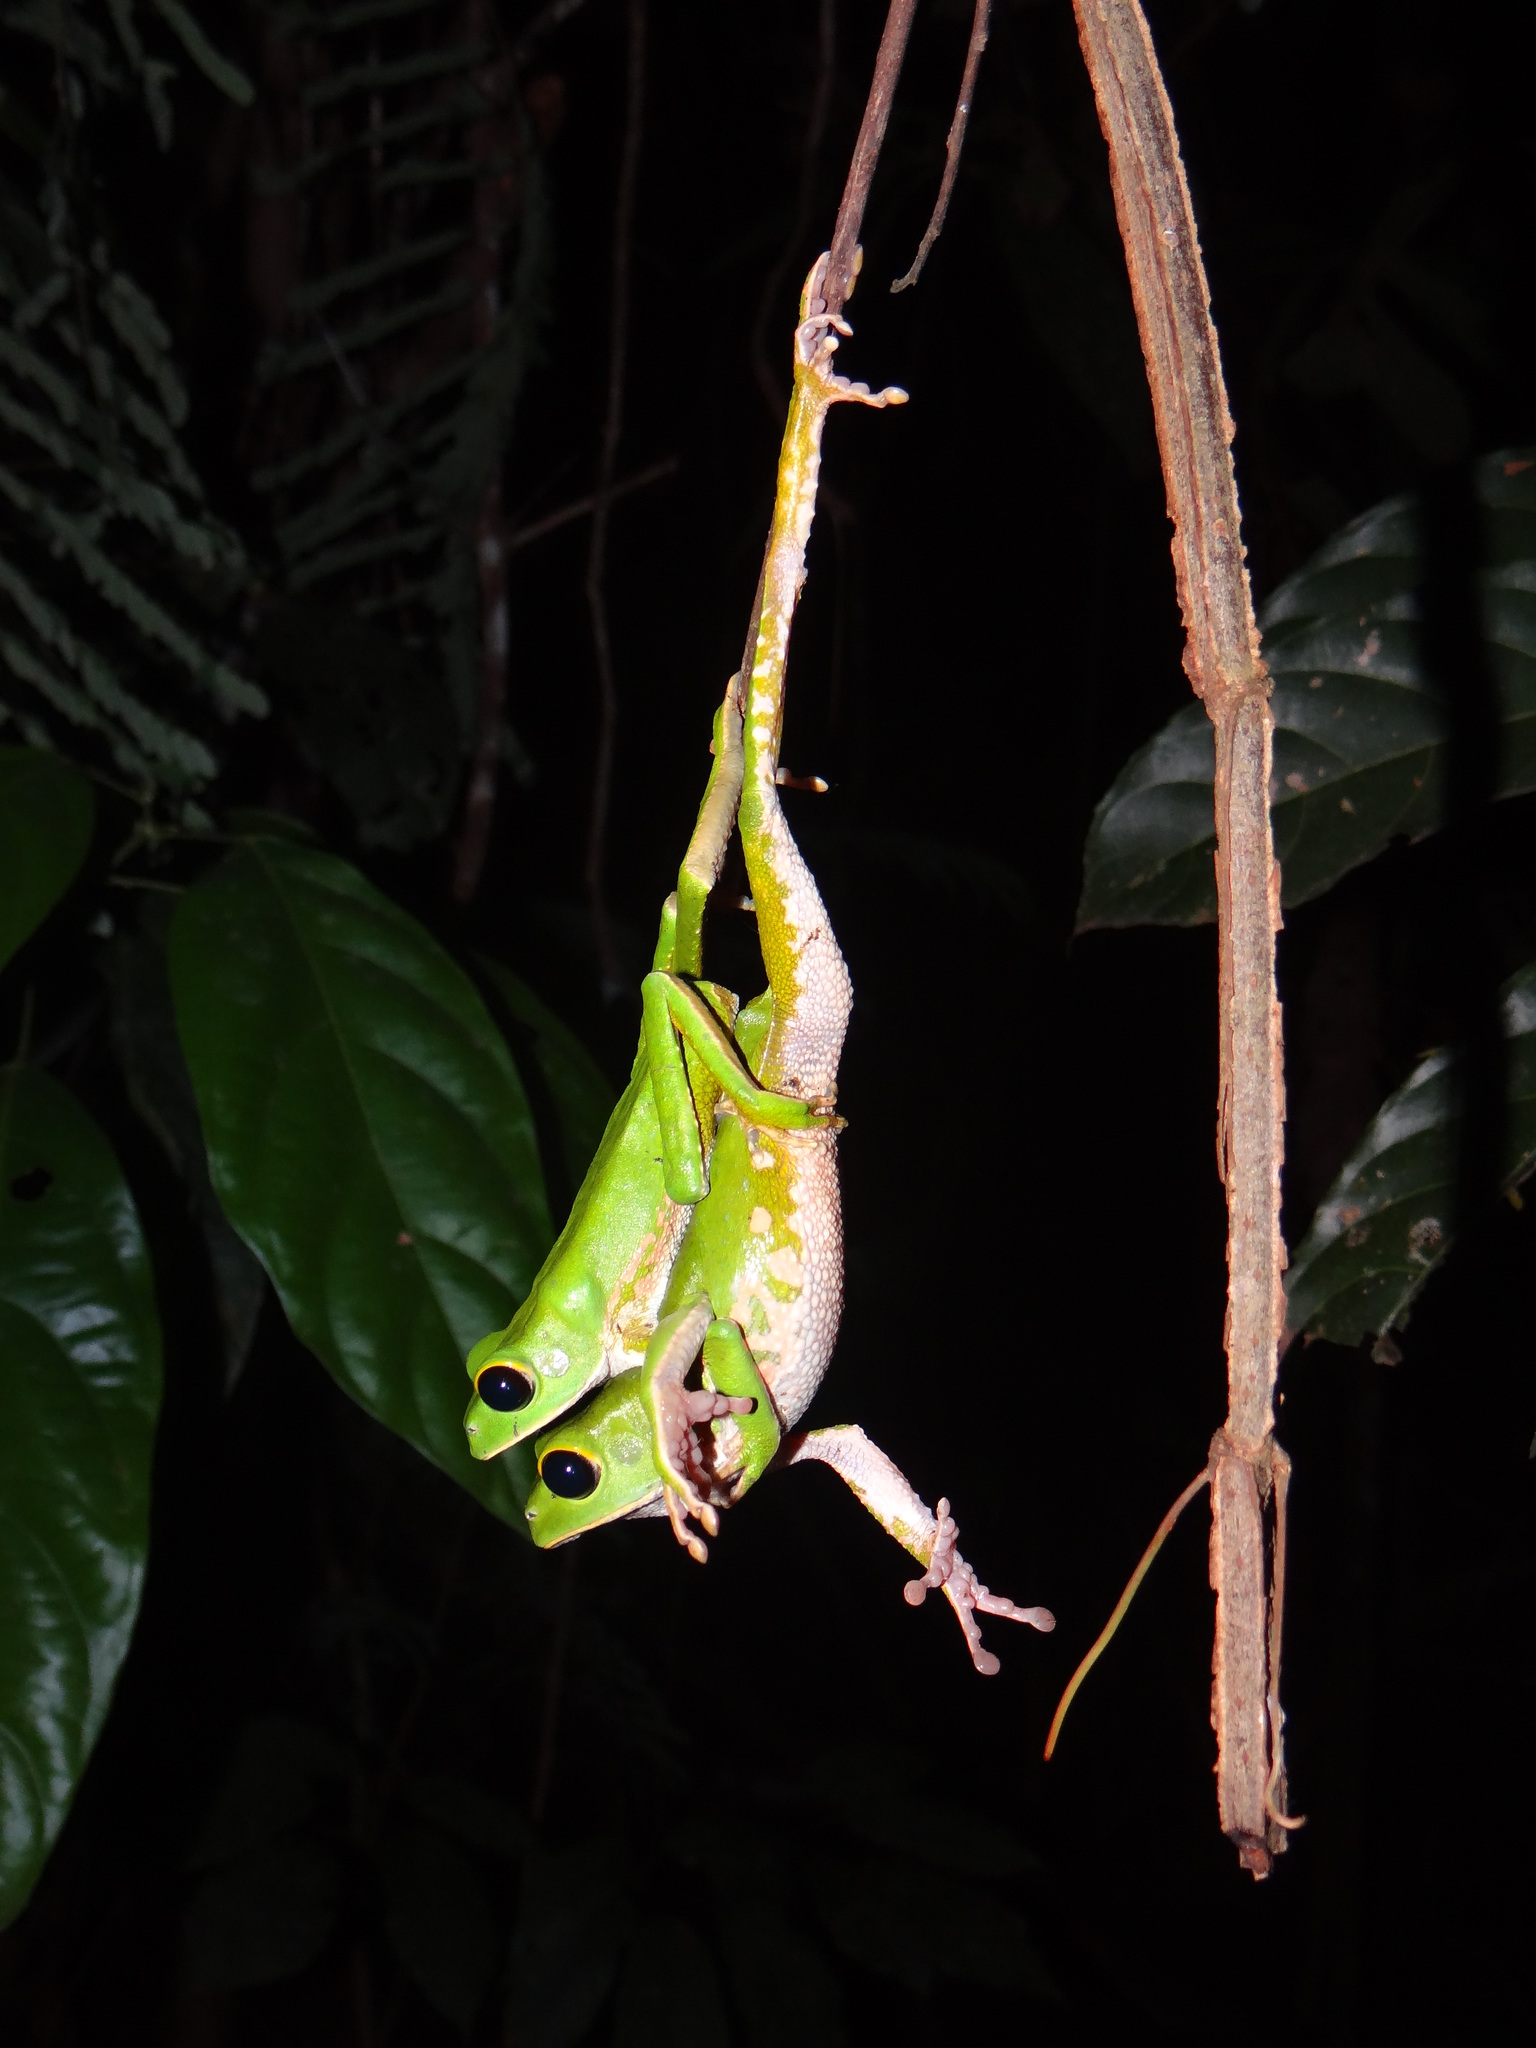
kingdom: Animalia
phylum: Chordata
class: Amphibia
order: Anura
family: Phyllomedusidae
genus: Phyllomedusa
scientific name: Phyllomedusa camba
